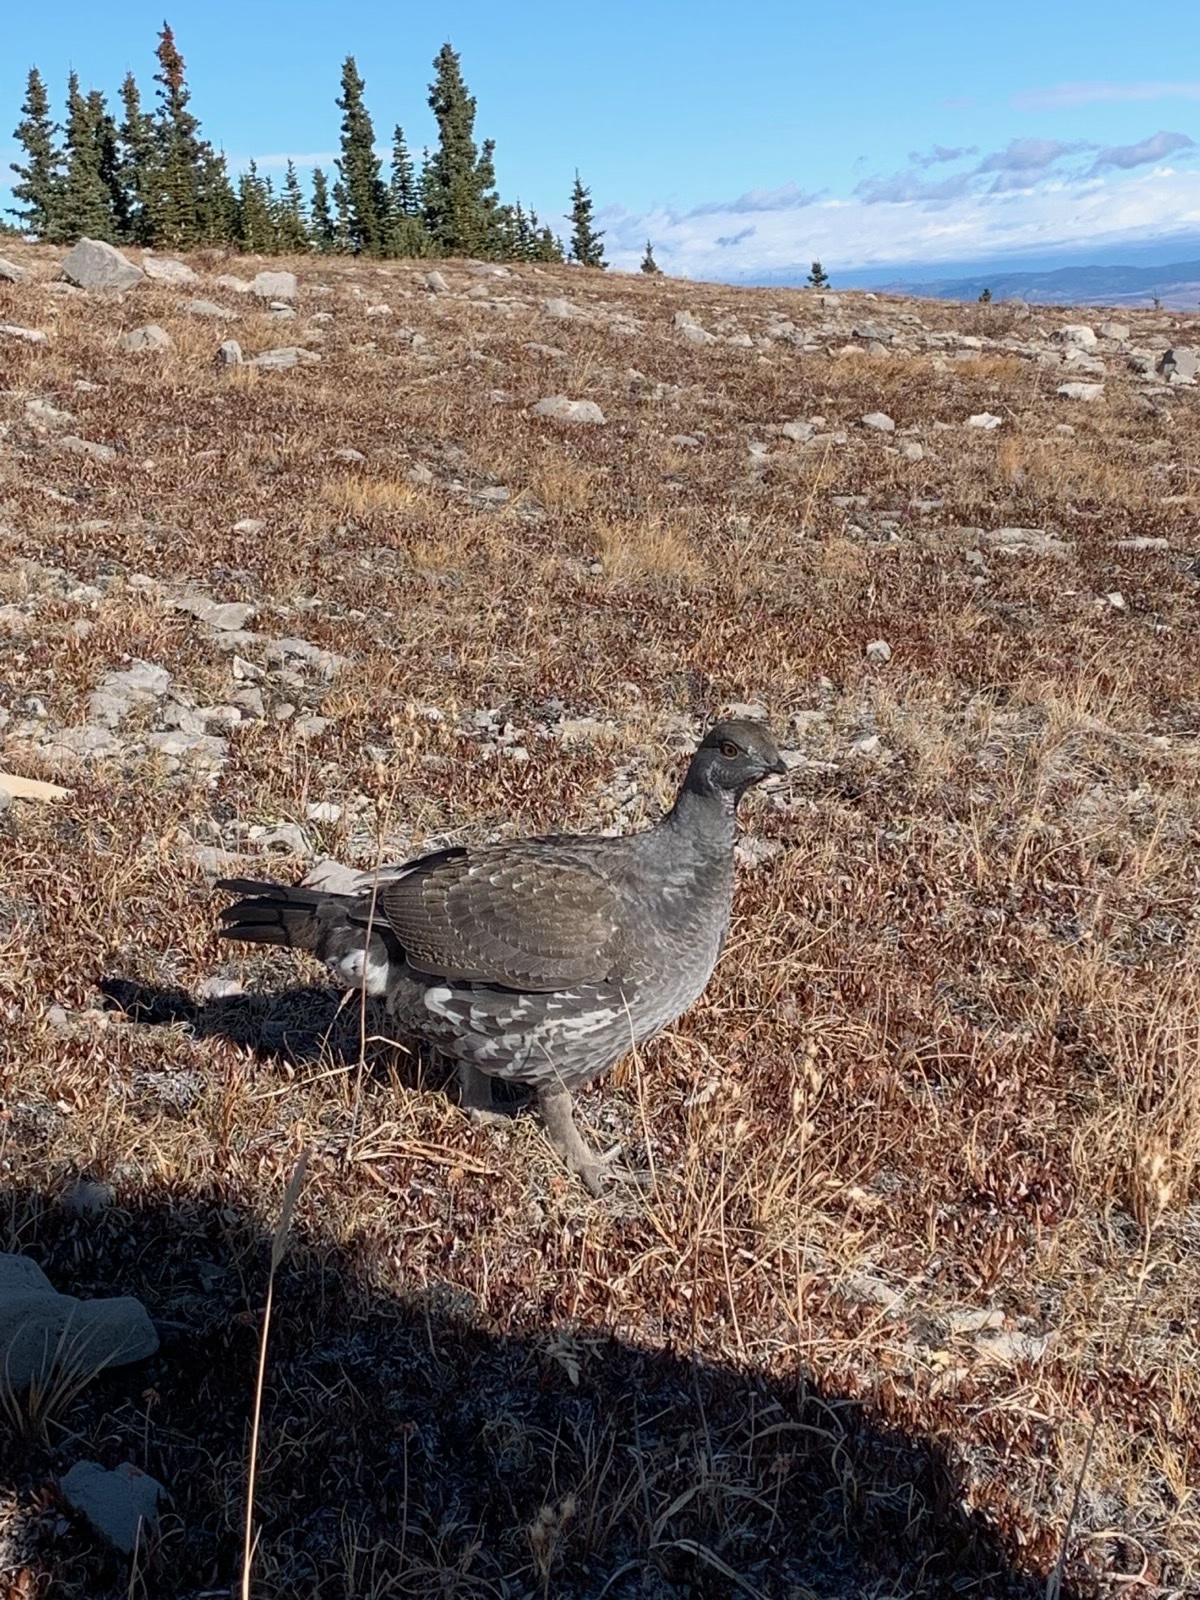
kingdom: Animalia
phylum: Chordata
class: Aves
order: Galliformes
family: Phasianidae
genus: Dendragapus
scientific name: Dendragapus obscurus
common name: Dusky grouse
